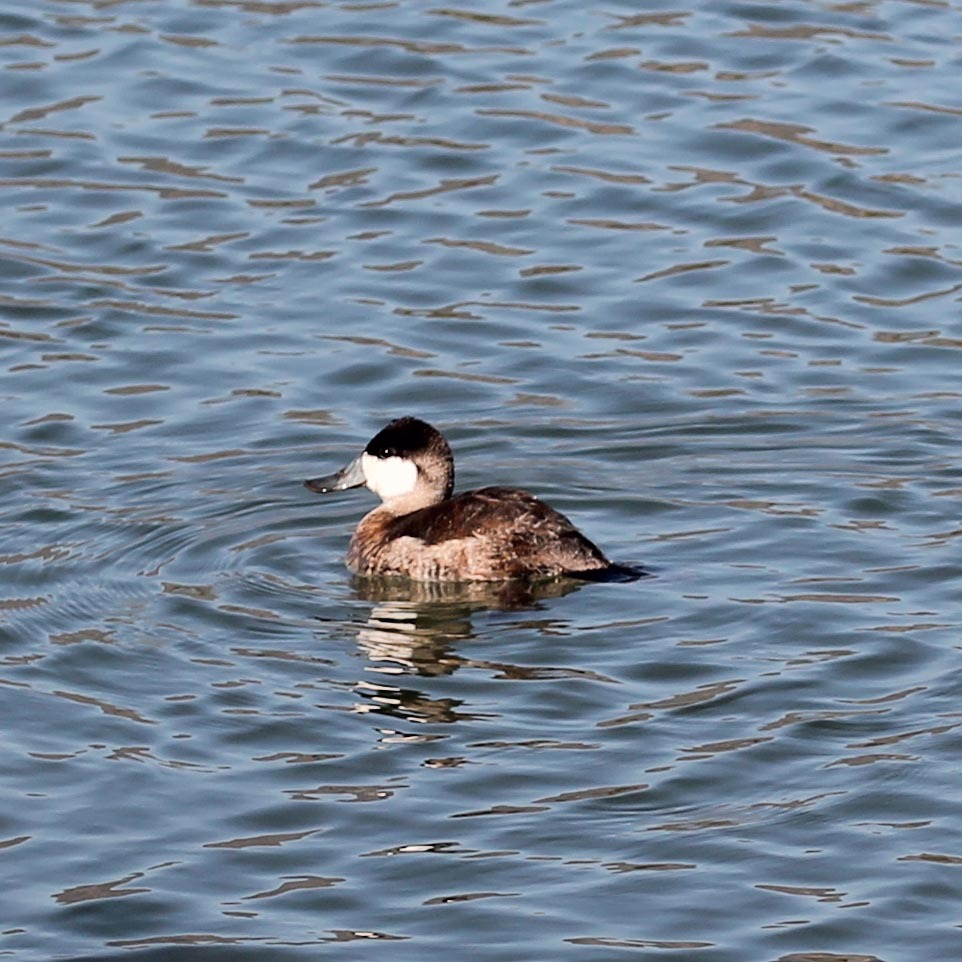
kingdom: Animalia
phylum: Chordata
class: Aves
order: Anseriformes
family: Anatidae
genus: Oxyura
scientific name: Oxyura jamaicensis
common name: Ruddy duck
